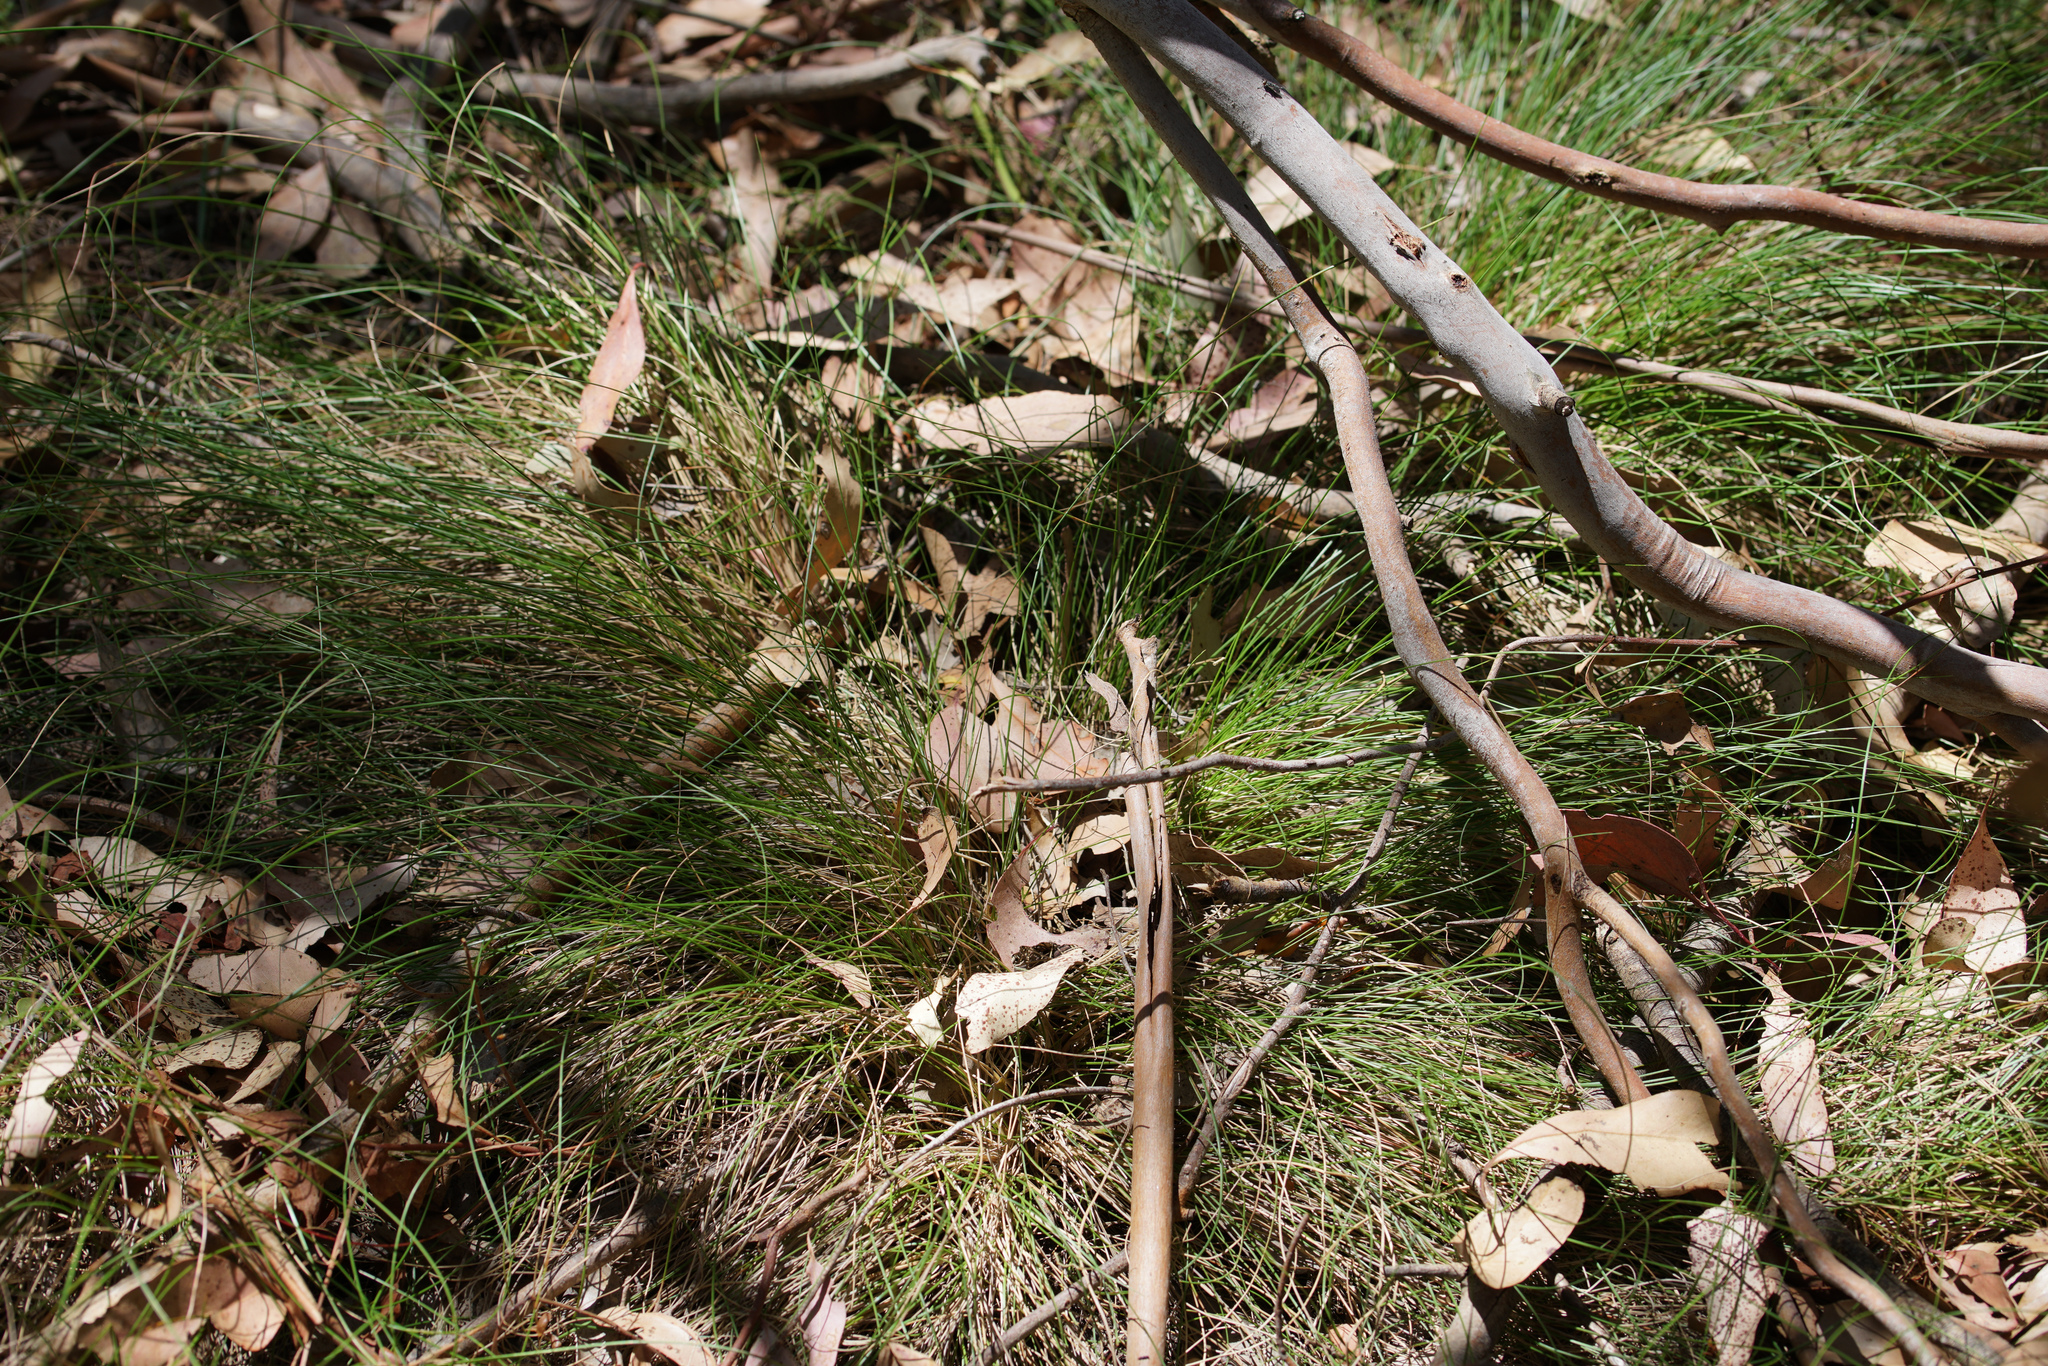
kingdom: Plantae
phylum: Tracheophyta
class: Liliopsida
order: Poales
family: Poaceae
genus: Rytidosperma
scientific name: Rytidosperma pallidum
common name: Red-anther wallaby grass
